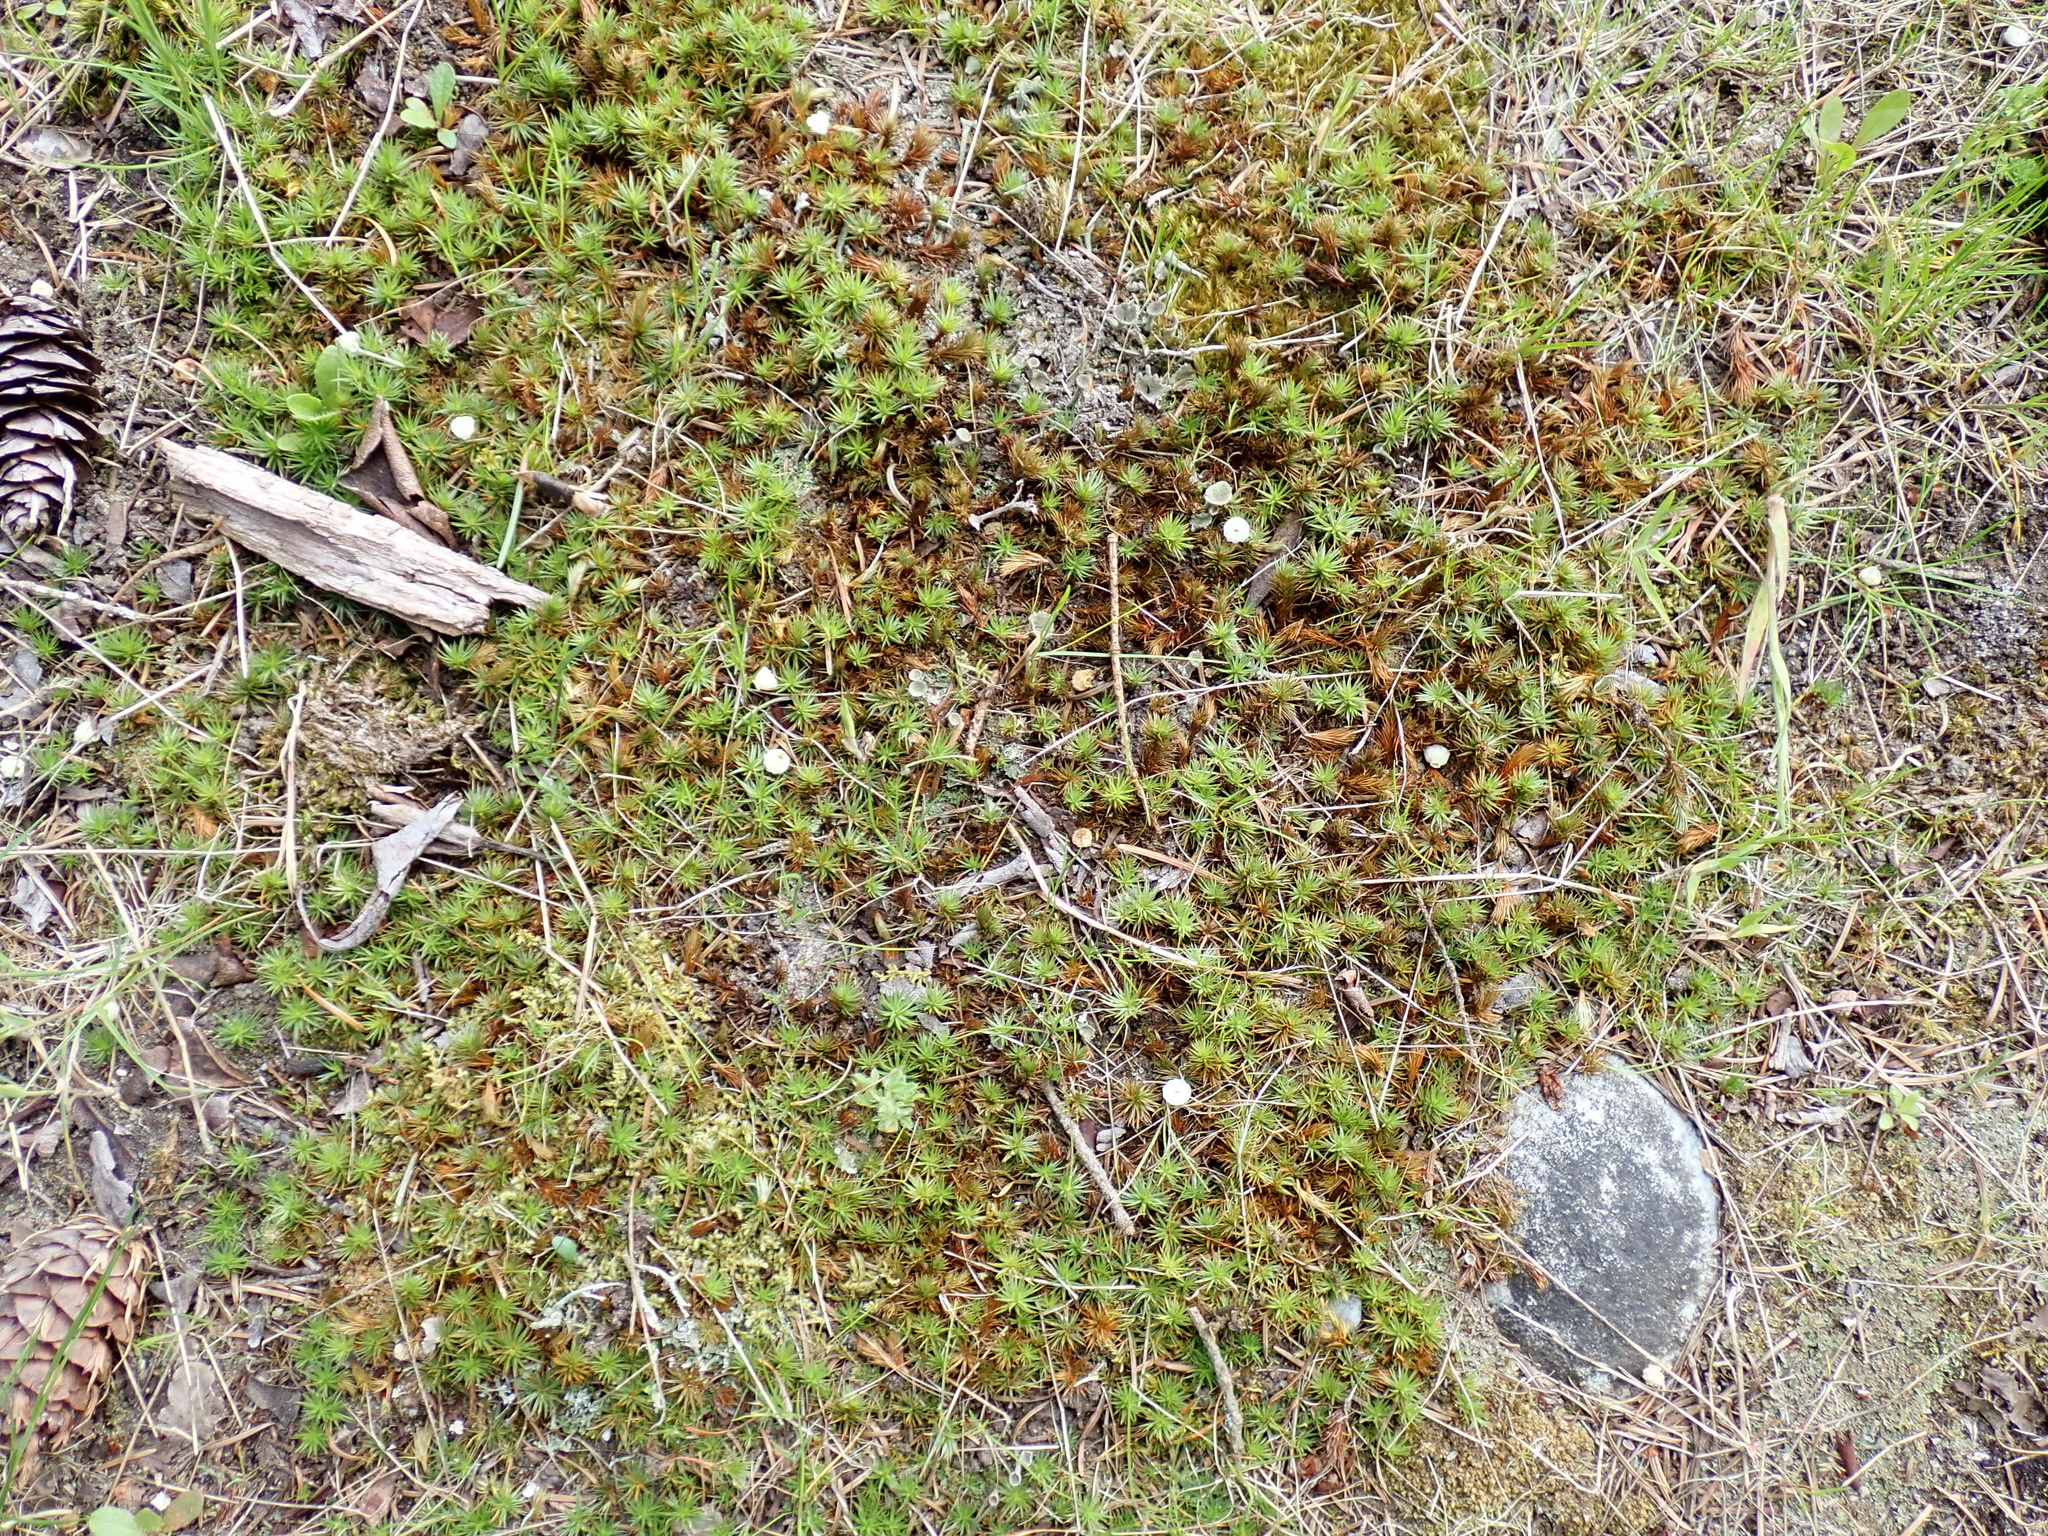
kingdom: Plantae
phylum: Bryophyta
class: Polytrichopsida
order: Polytrichales
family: Polytrichaceae
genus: Polytrichum
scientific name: Polytrichum juniperinum
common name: Juniper haircap moss
